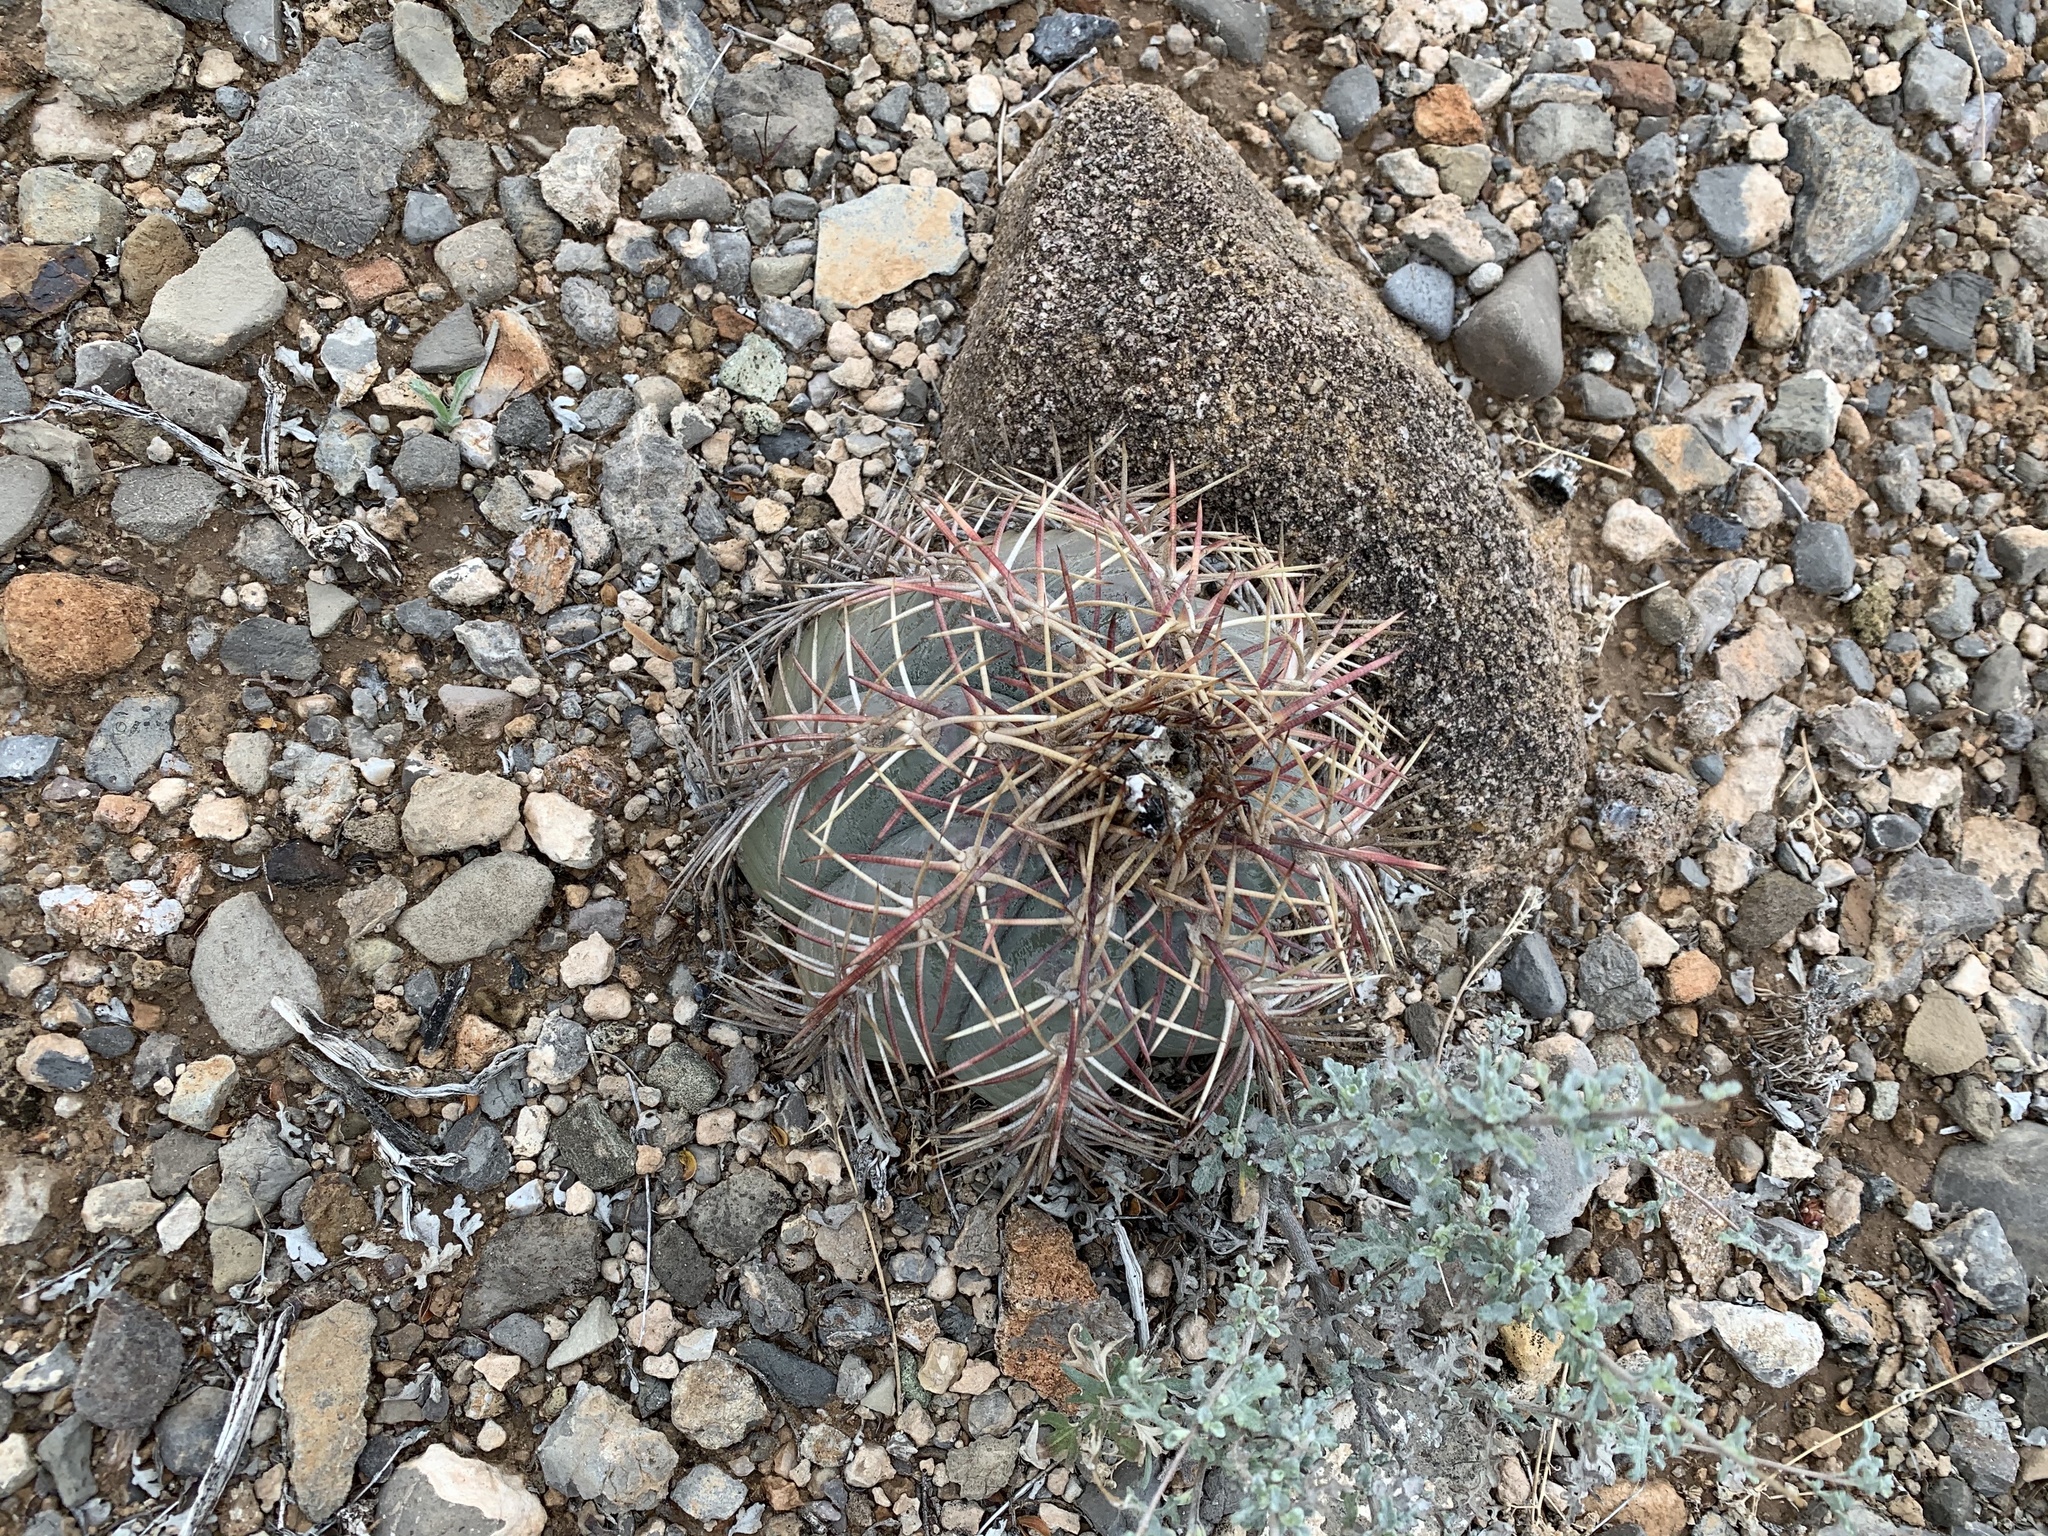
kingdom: Plantae
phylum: Tracheophyta
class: Magnoliopsida
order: Caryophyllales
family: Cactaceae
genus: Echinocactus
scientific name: Echinocactus horizonthalonius
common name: Devilshead
